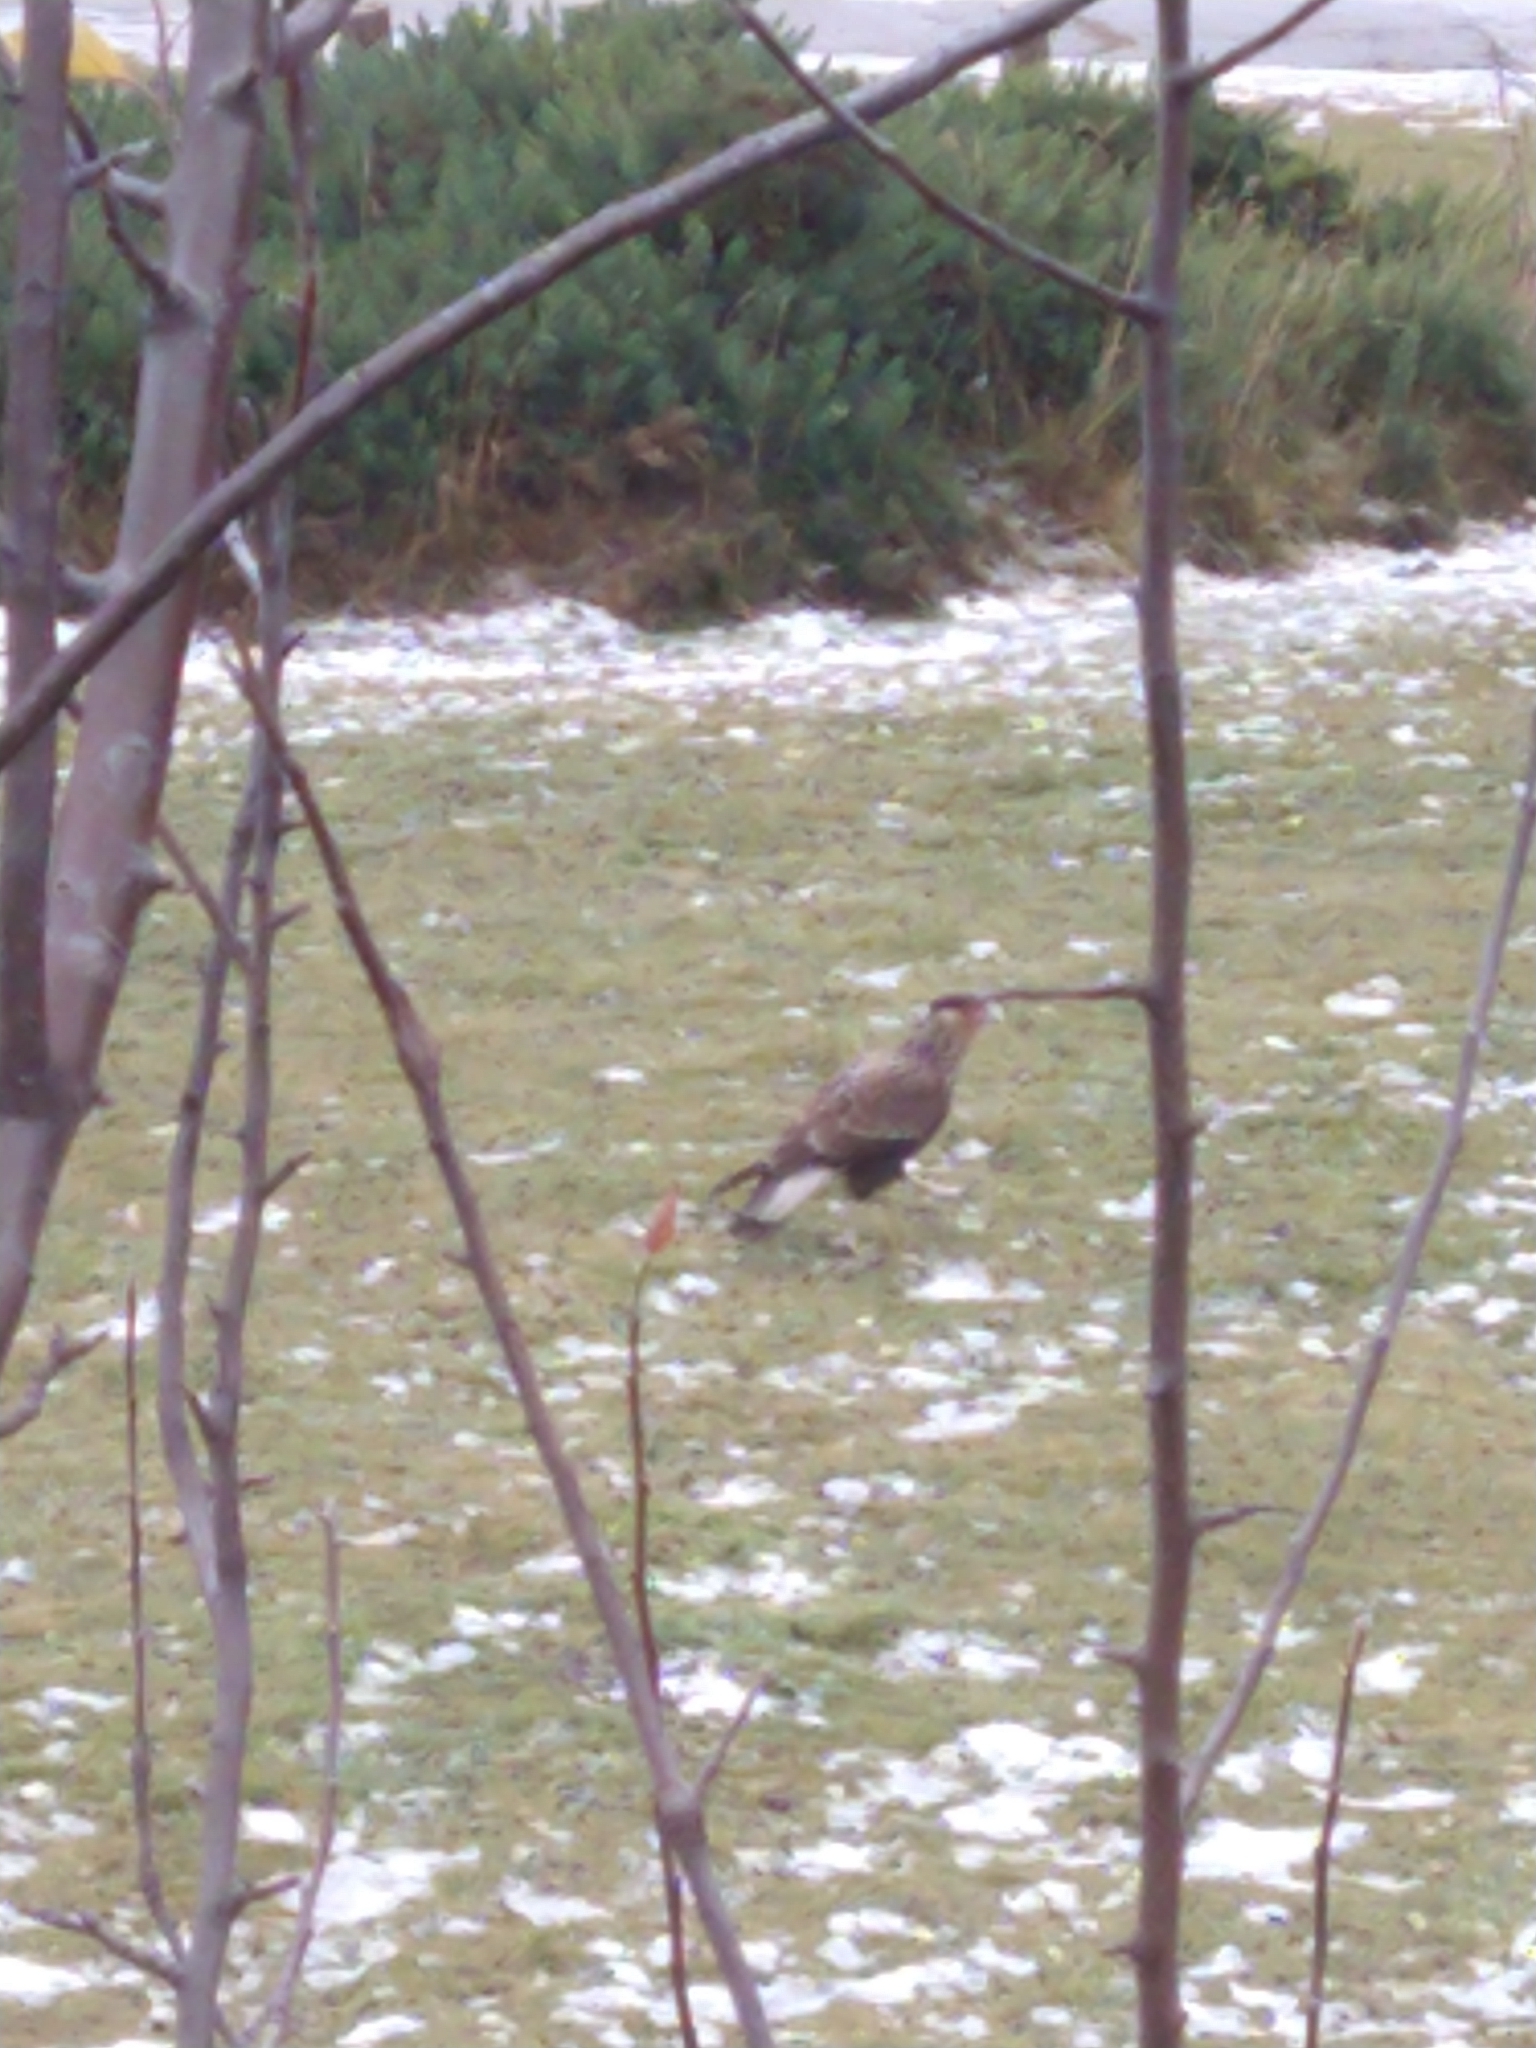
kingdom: Animalia
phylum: Chordata
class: Aves
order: Falconiformes
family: Falconidae
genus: Caracara
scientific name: Caracara plancus
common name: Southern caracara
